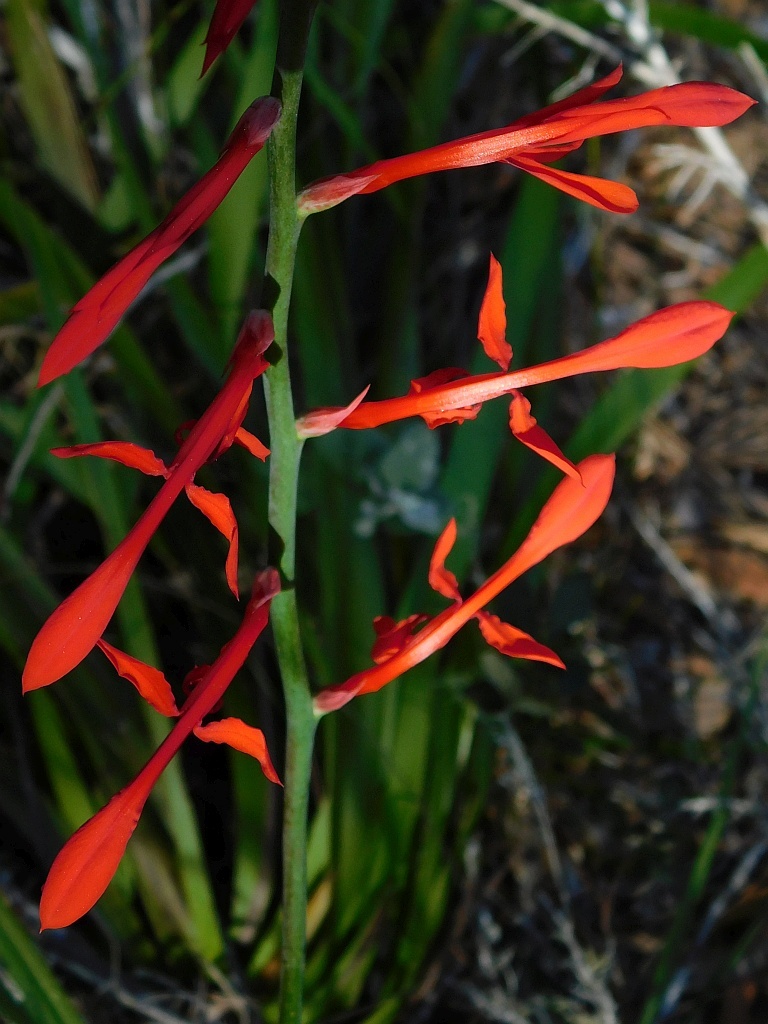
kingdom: Plantae
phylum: Tracheophyta
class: Liliopsida
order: Asparagales
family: Iridaceae
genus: Tritoniopsis
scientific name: Tritoniopsis caffra
